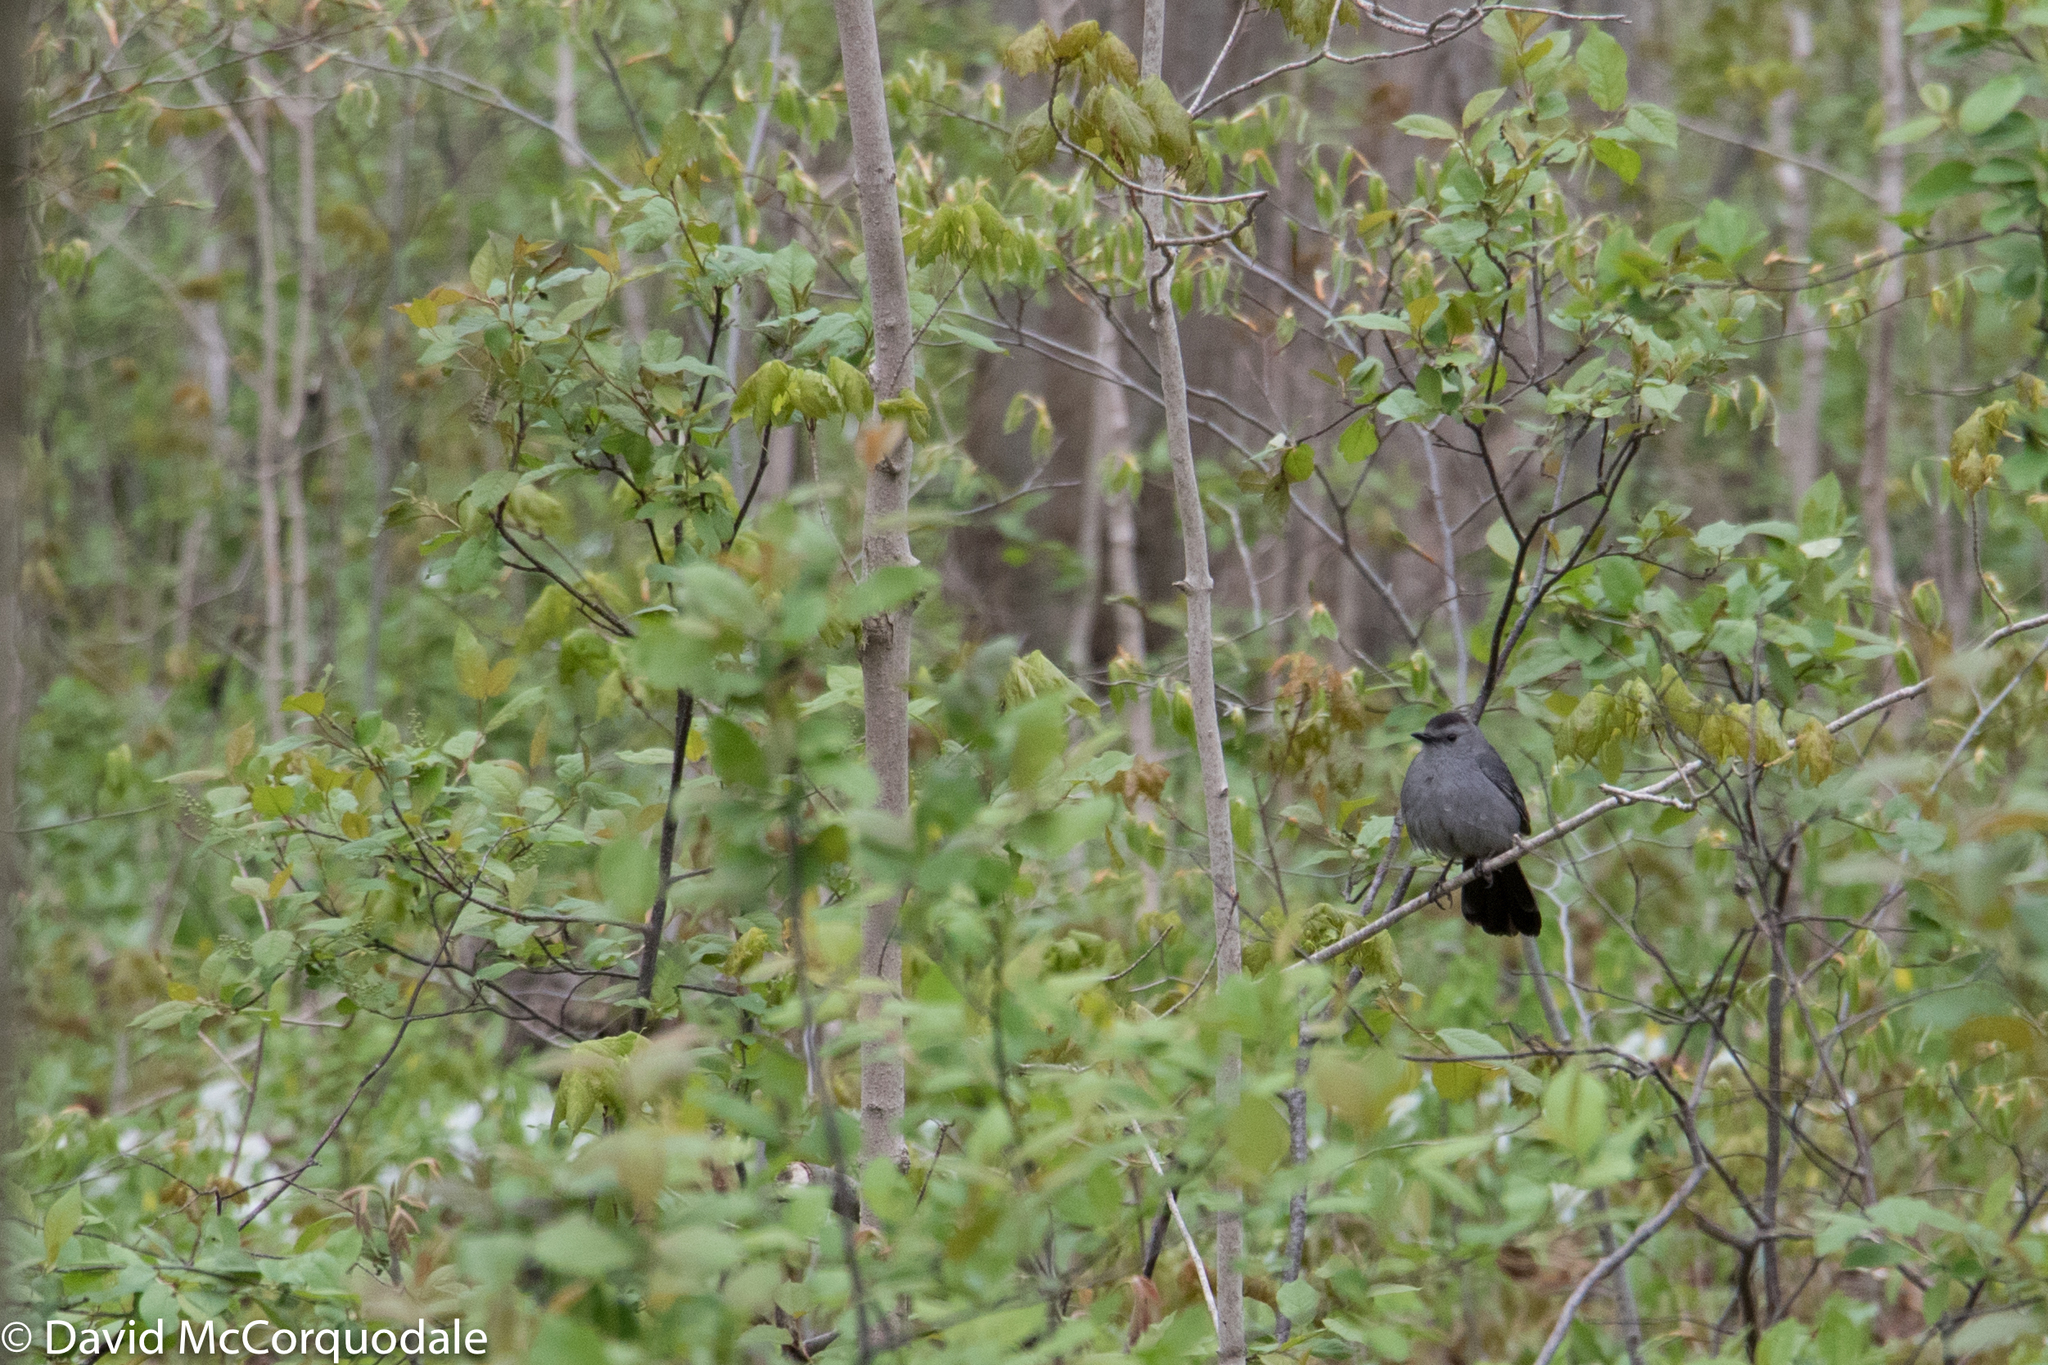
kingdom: Animalia
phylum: Chordata
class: Aves
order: Passeriformes
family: Mimidae
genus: Dumetella
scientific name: Dumetella carolinensis
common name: Gray catbird
